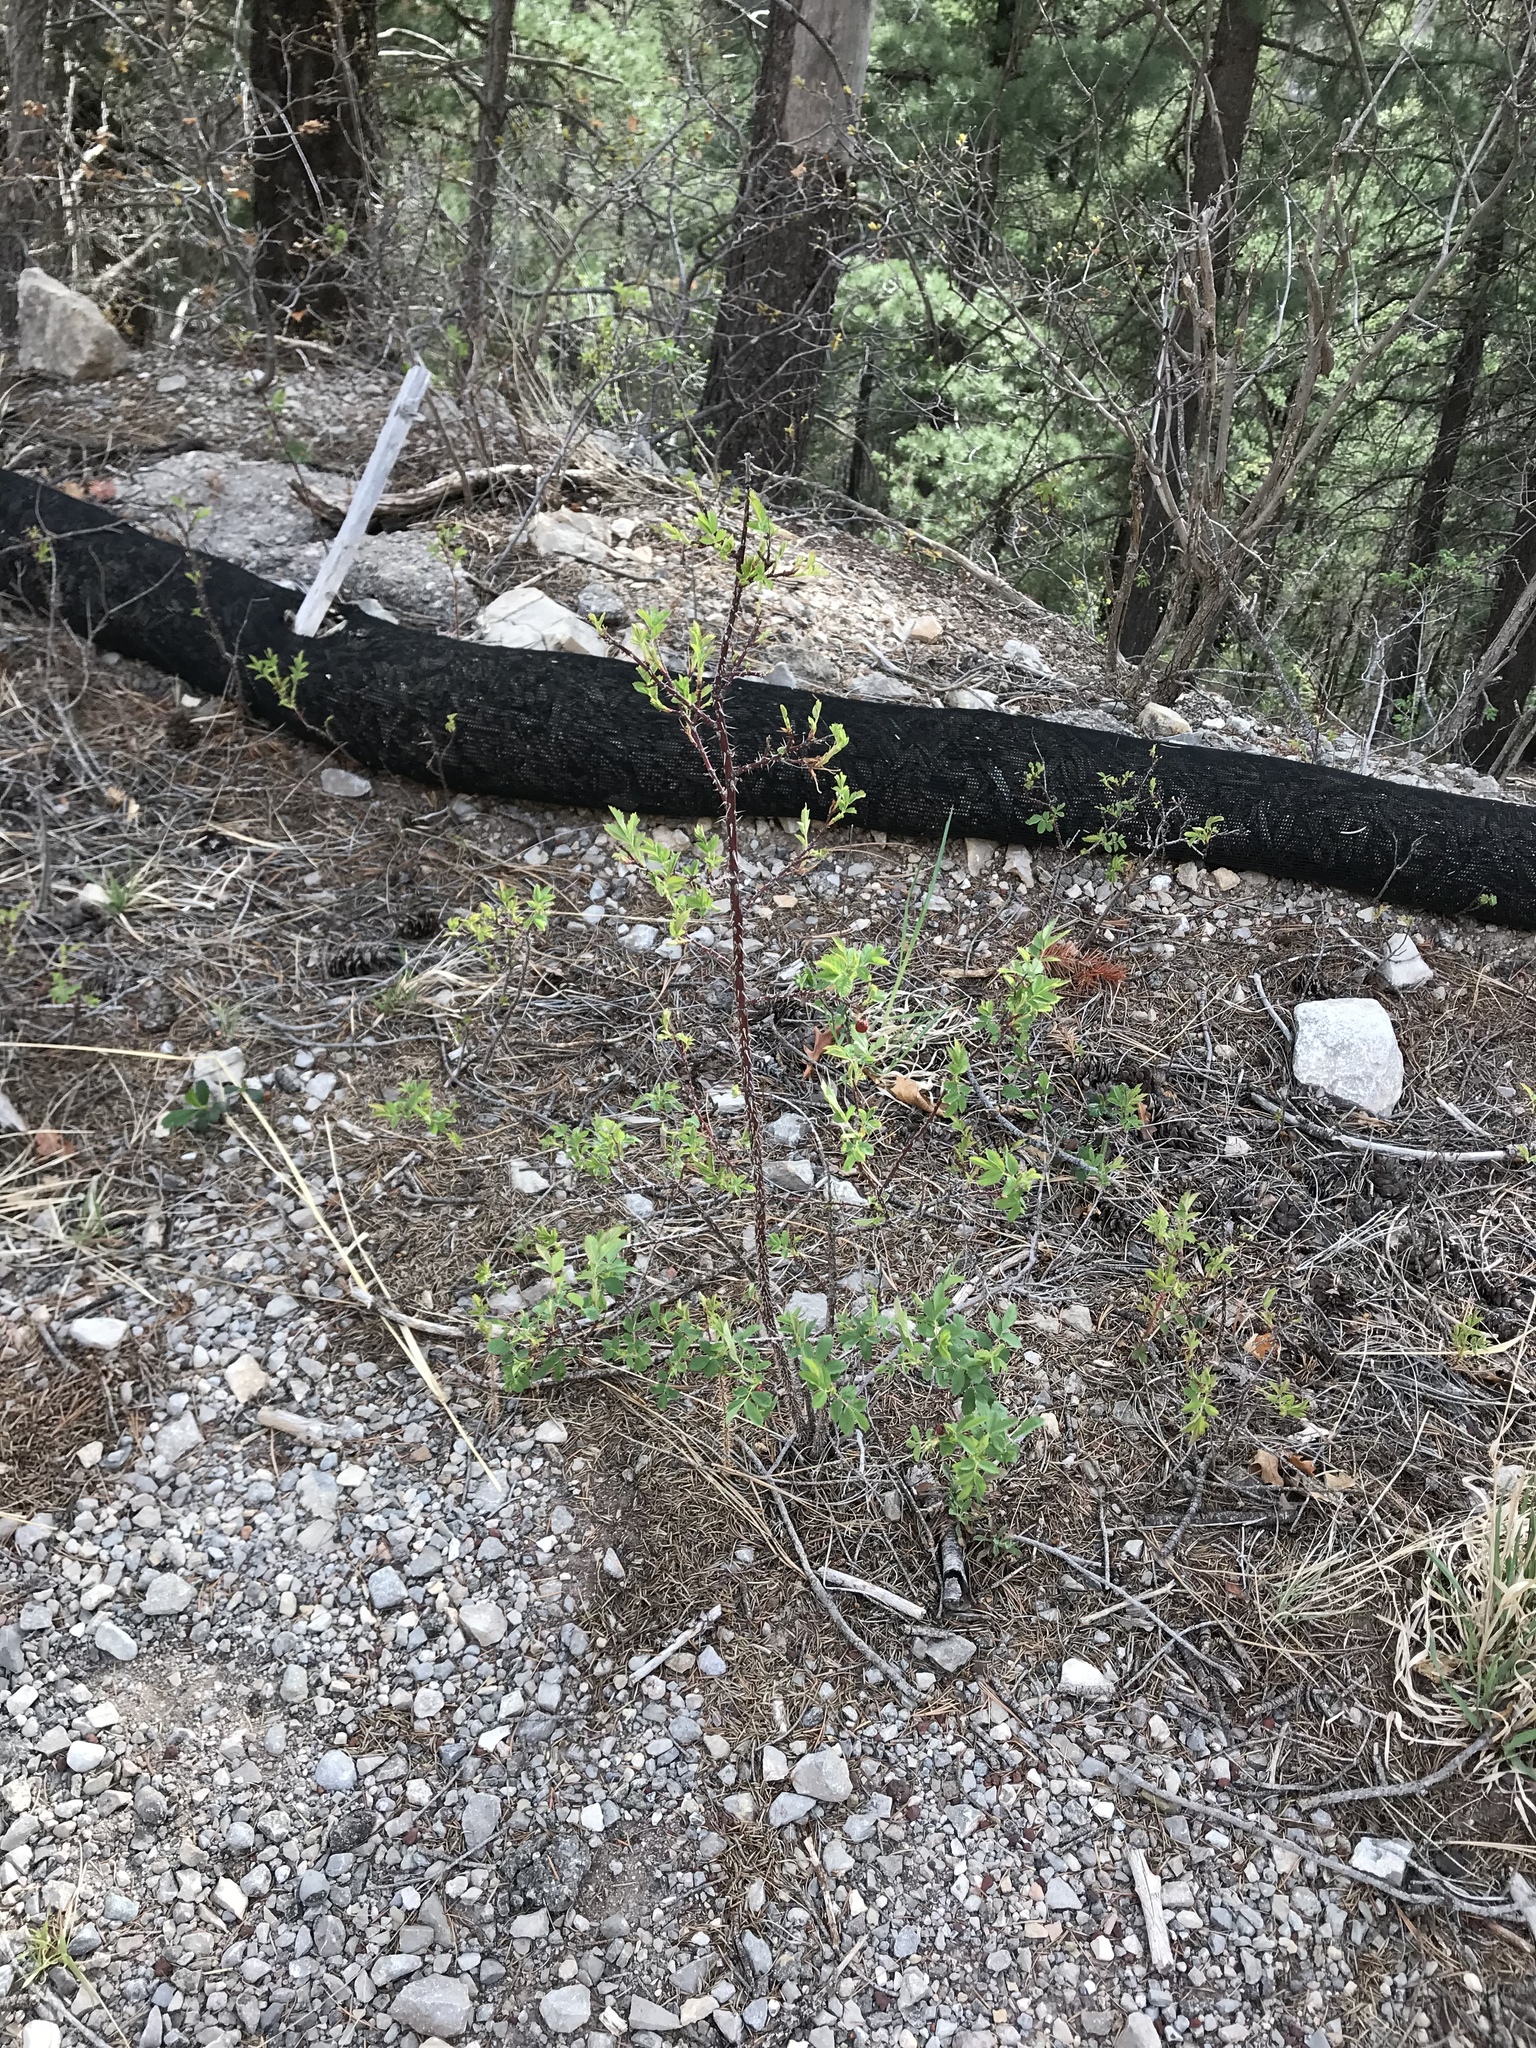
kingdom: Plantae
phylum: Tracheophyta
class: Magnoliopsida
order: Rosales
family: Rosaceae
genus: Rosa
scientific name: Rosa woodsii
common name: Woods's rose
